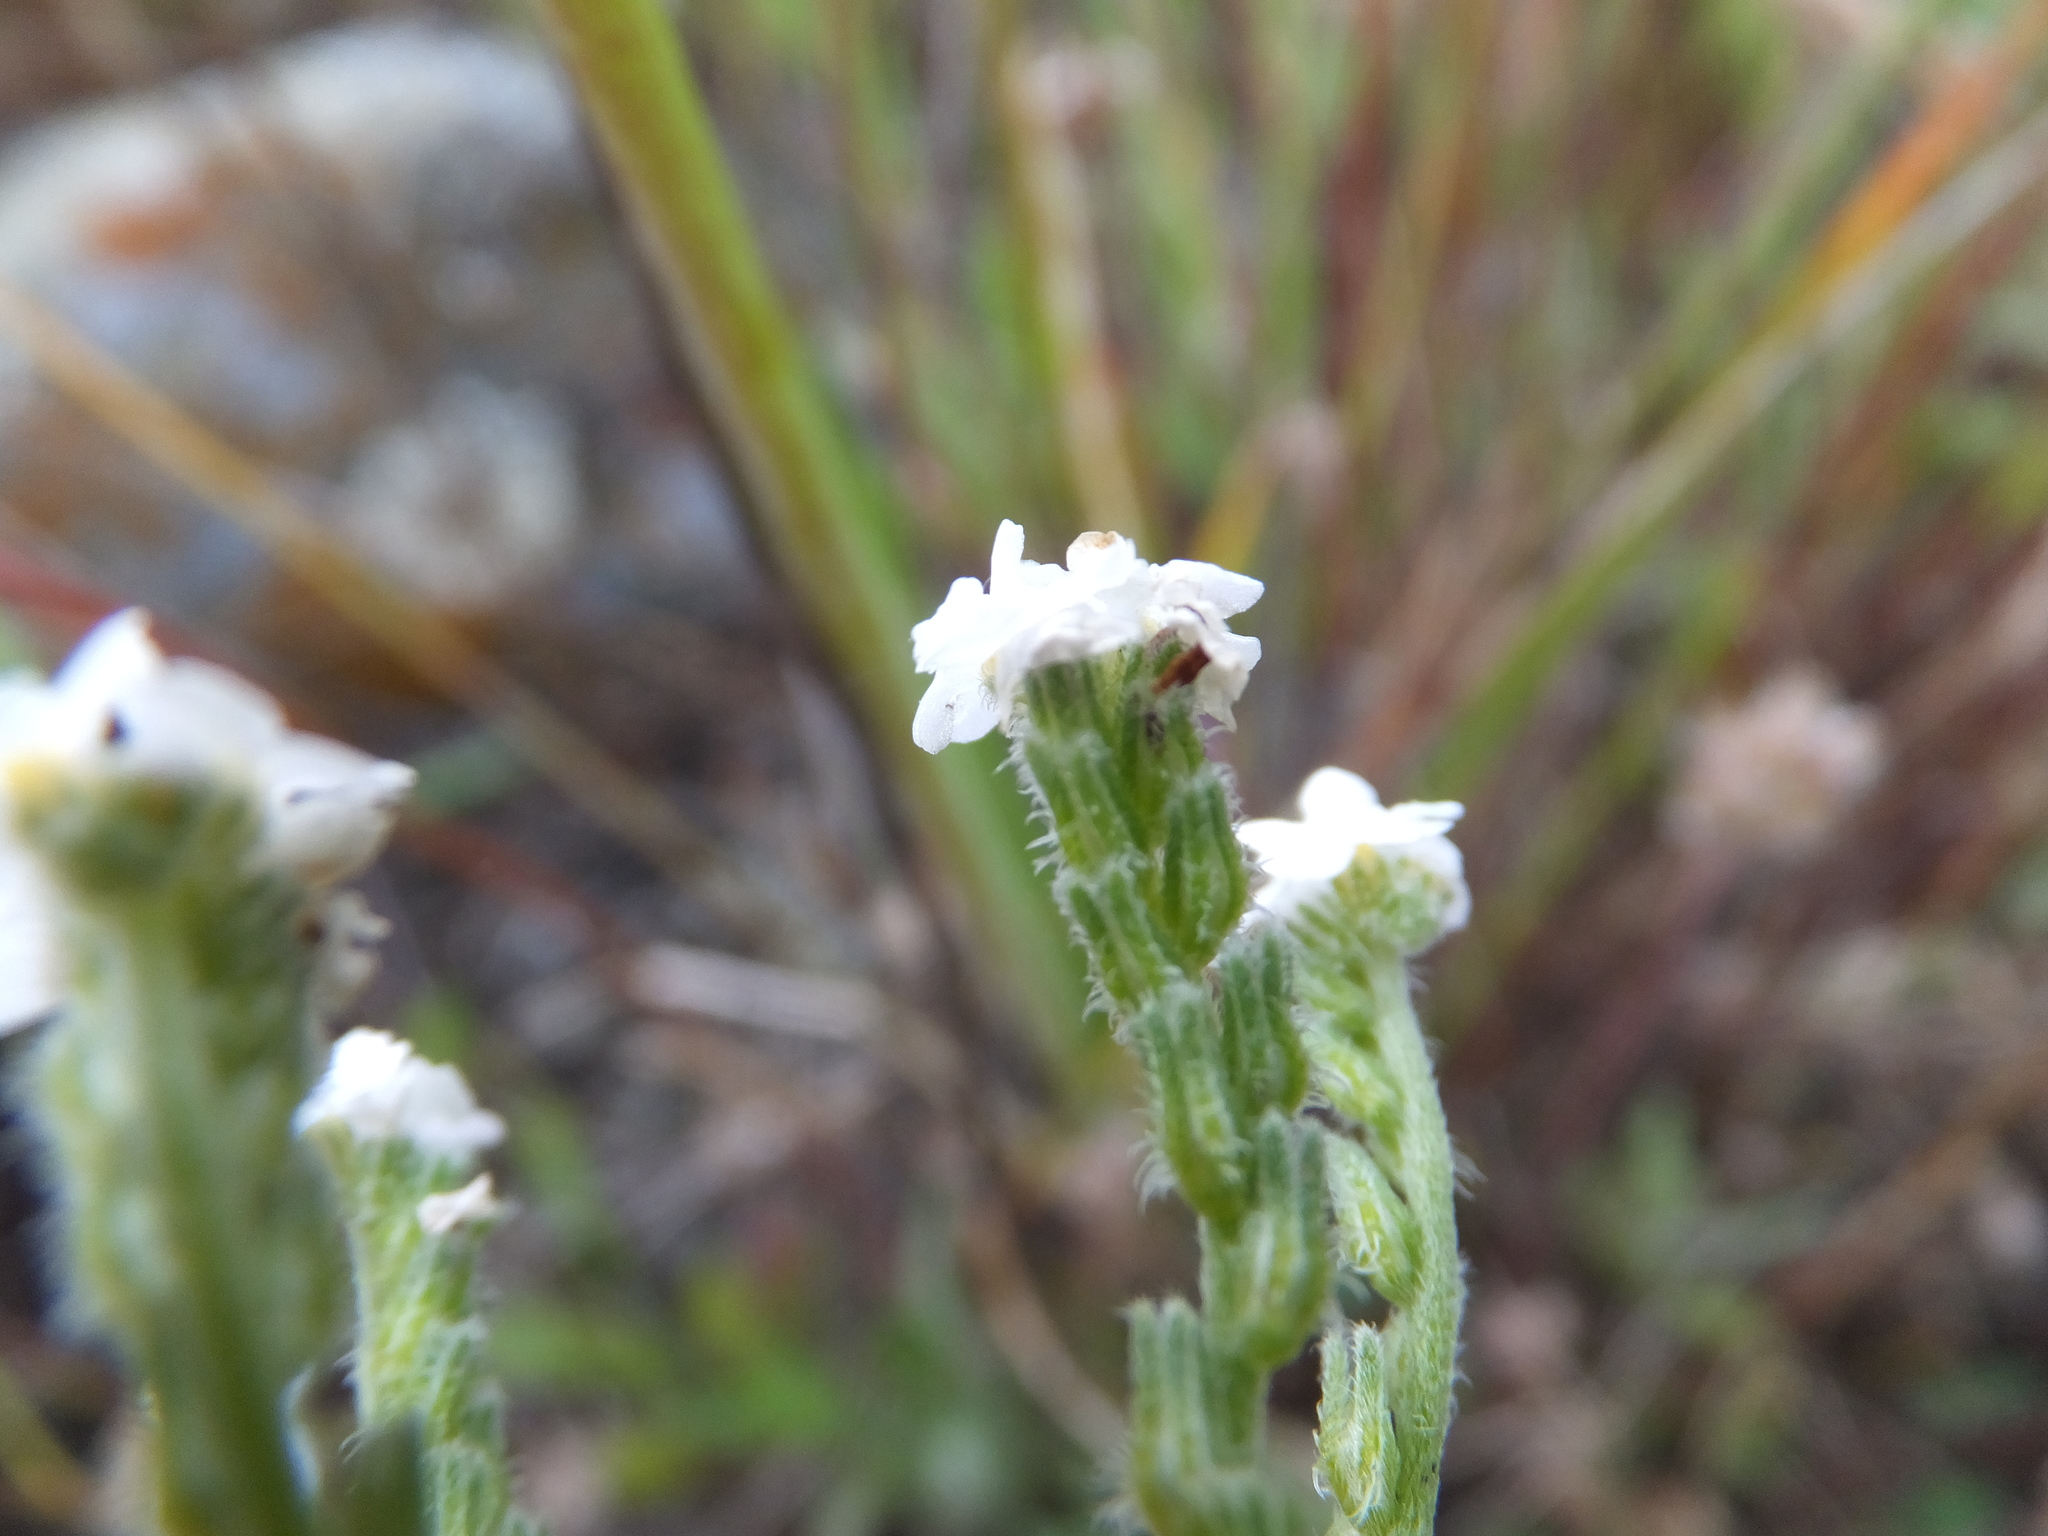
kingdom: Plantae
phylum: Tracheophyta
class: Magnoliopsida
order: Boraginales
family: Boraginaceae
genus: Cryptantha
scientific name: Cryptantha flaccida
